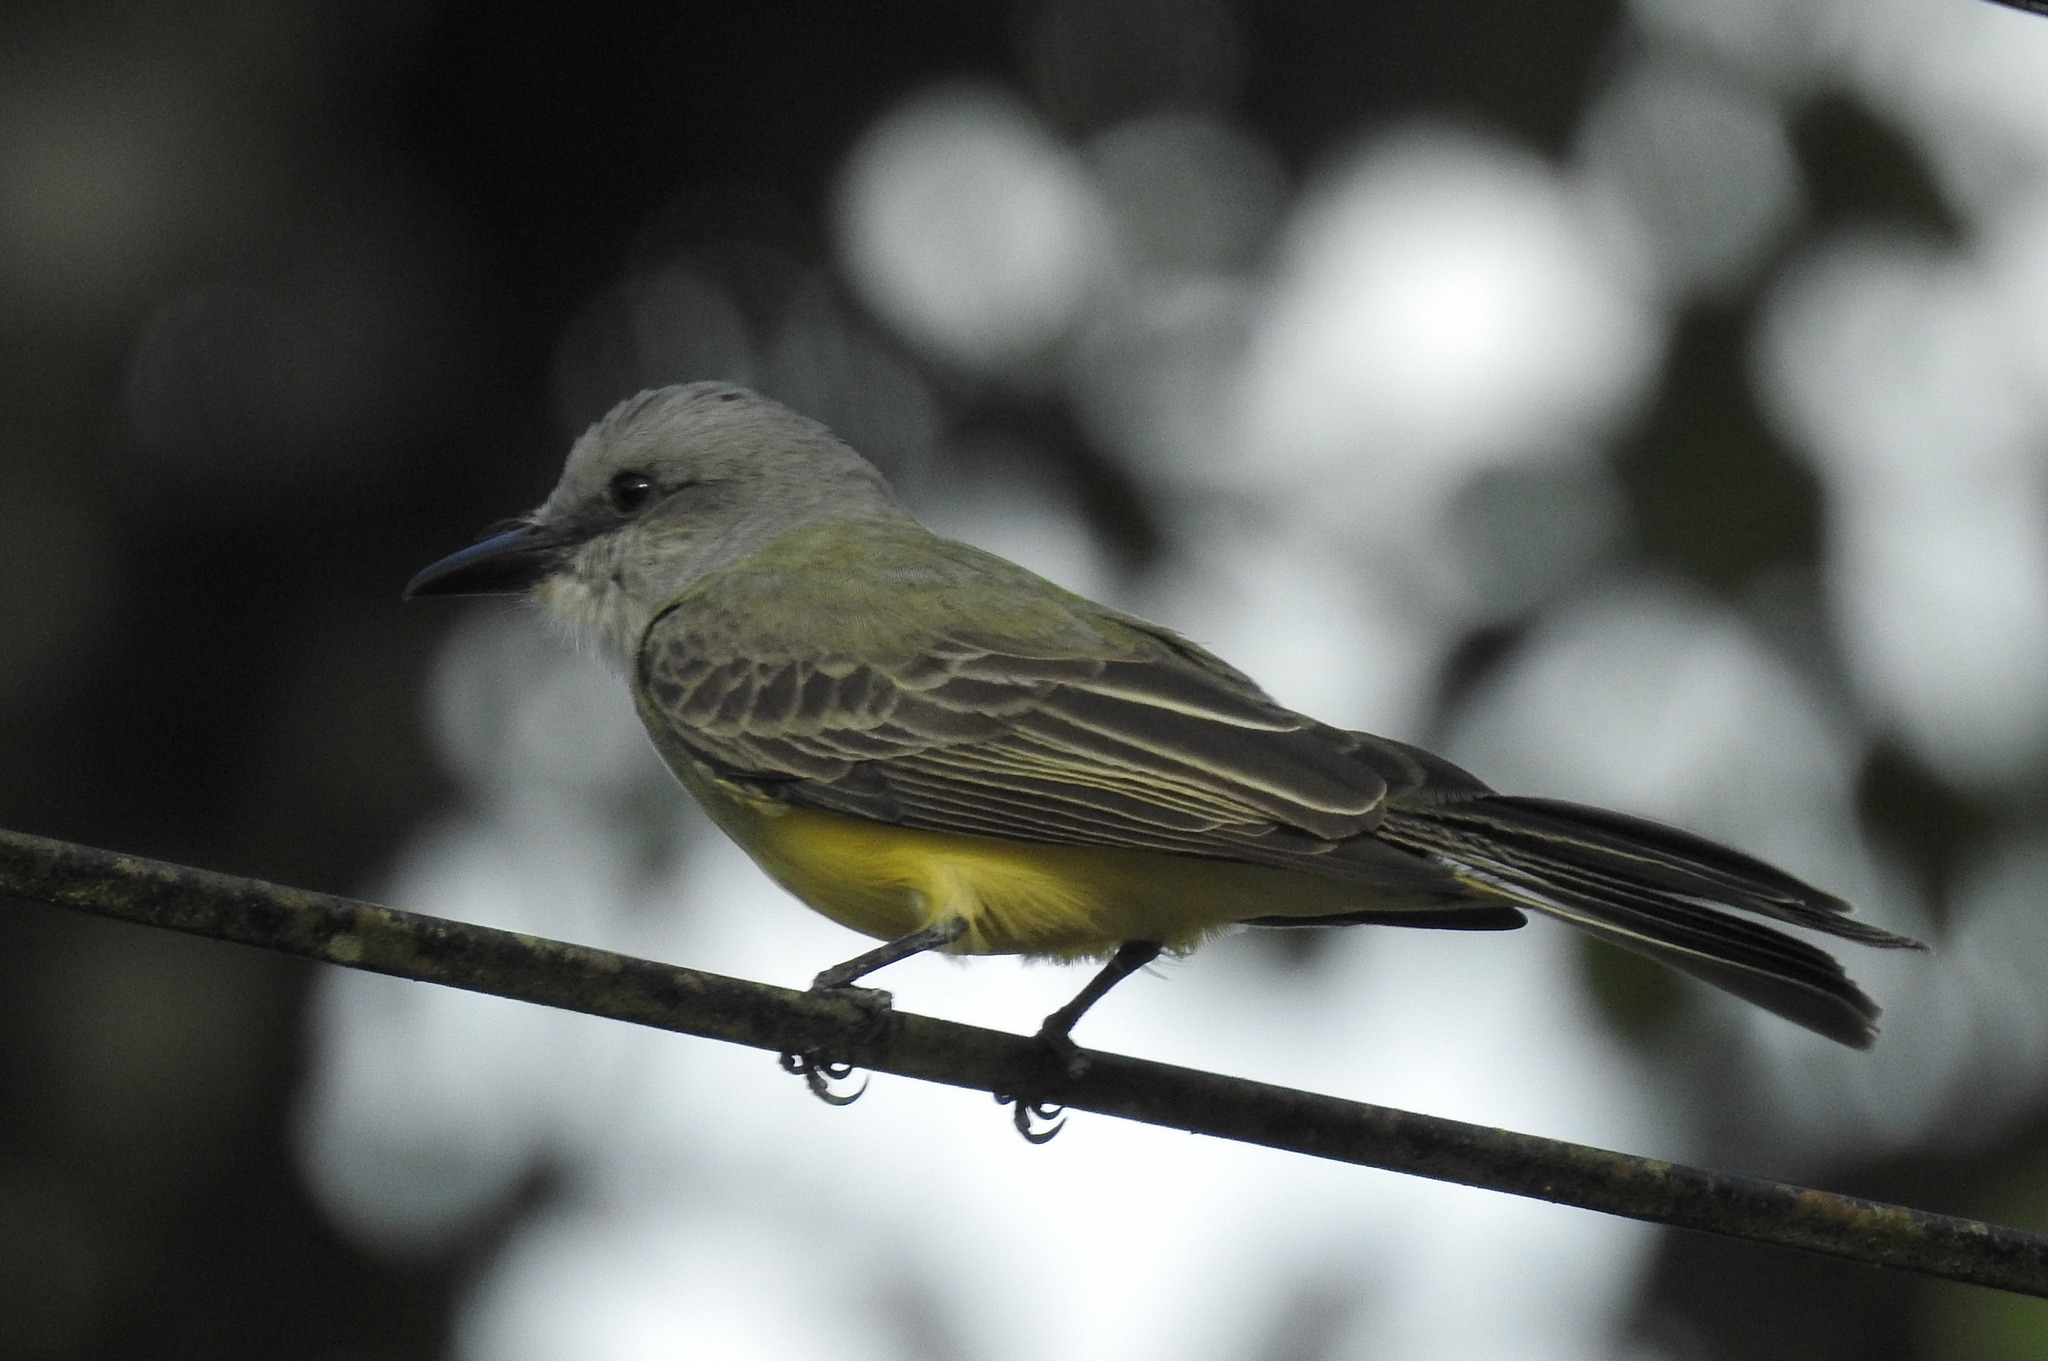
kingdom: Animalia
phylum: Chordata
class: Aves
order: Passeriformes
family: Tyrannidae
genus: Tyrannus
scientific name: Tyrannus melancholicus
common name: Tropical kingbird
